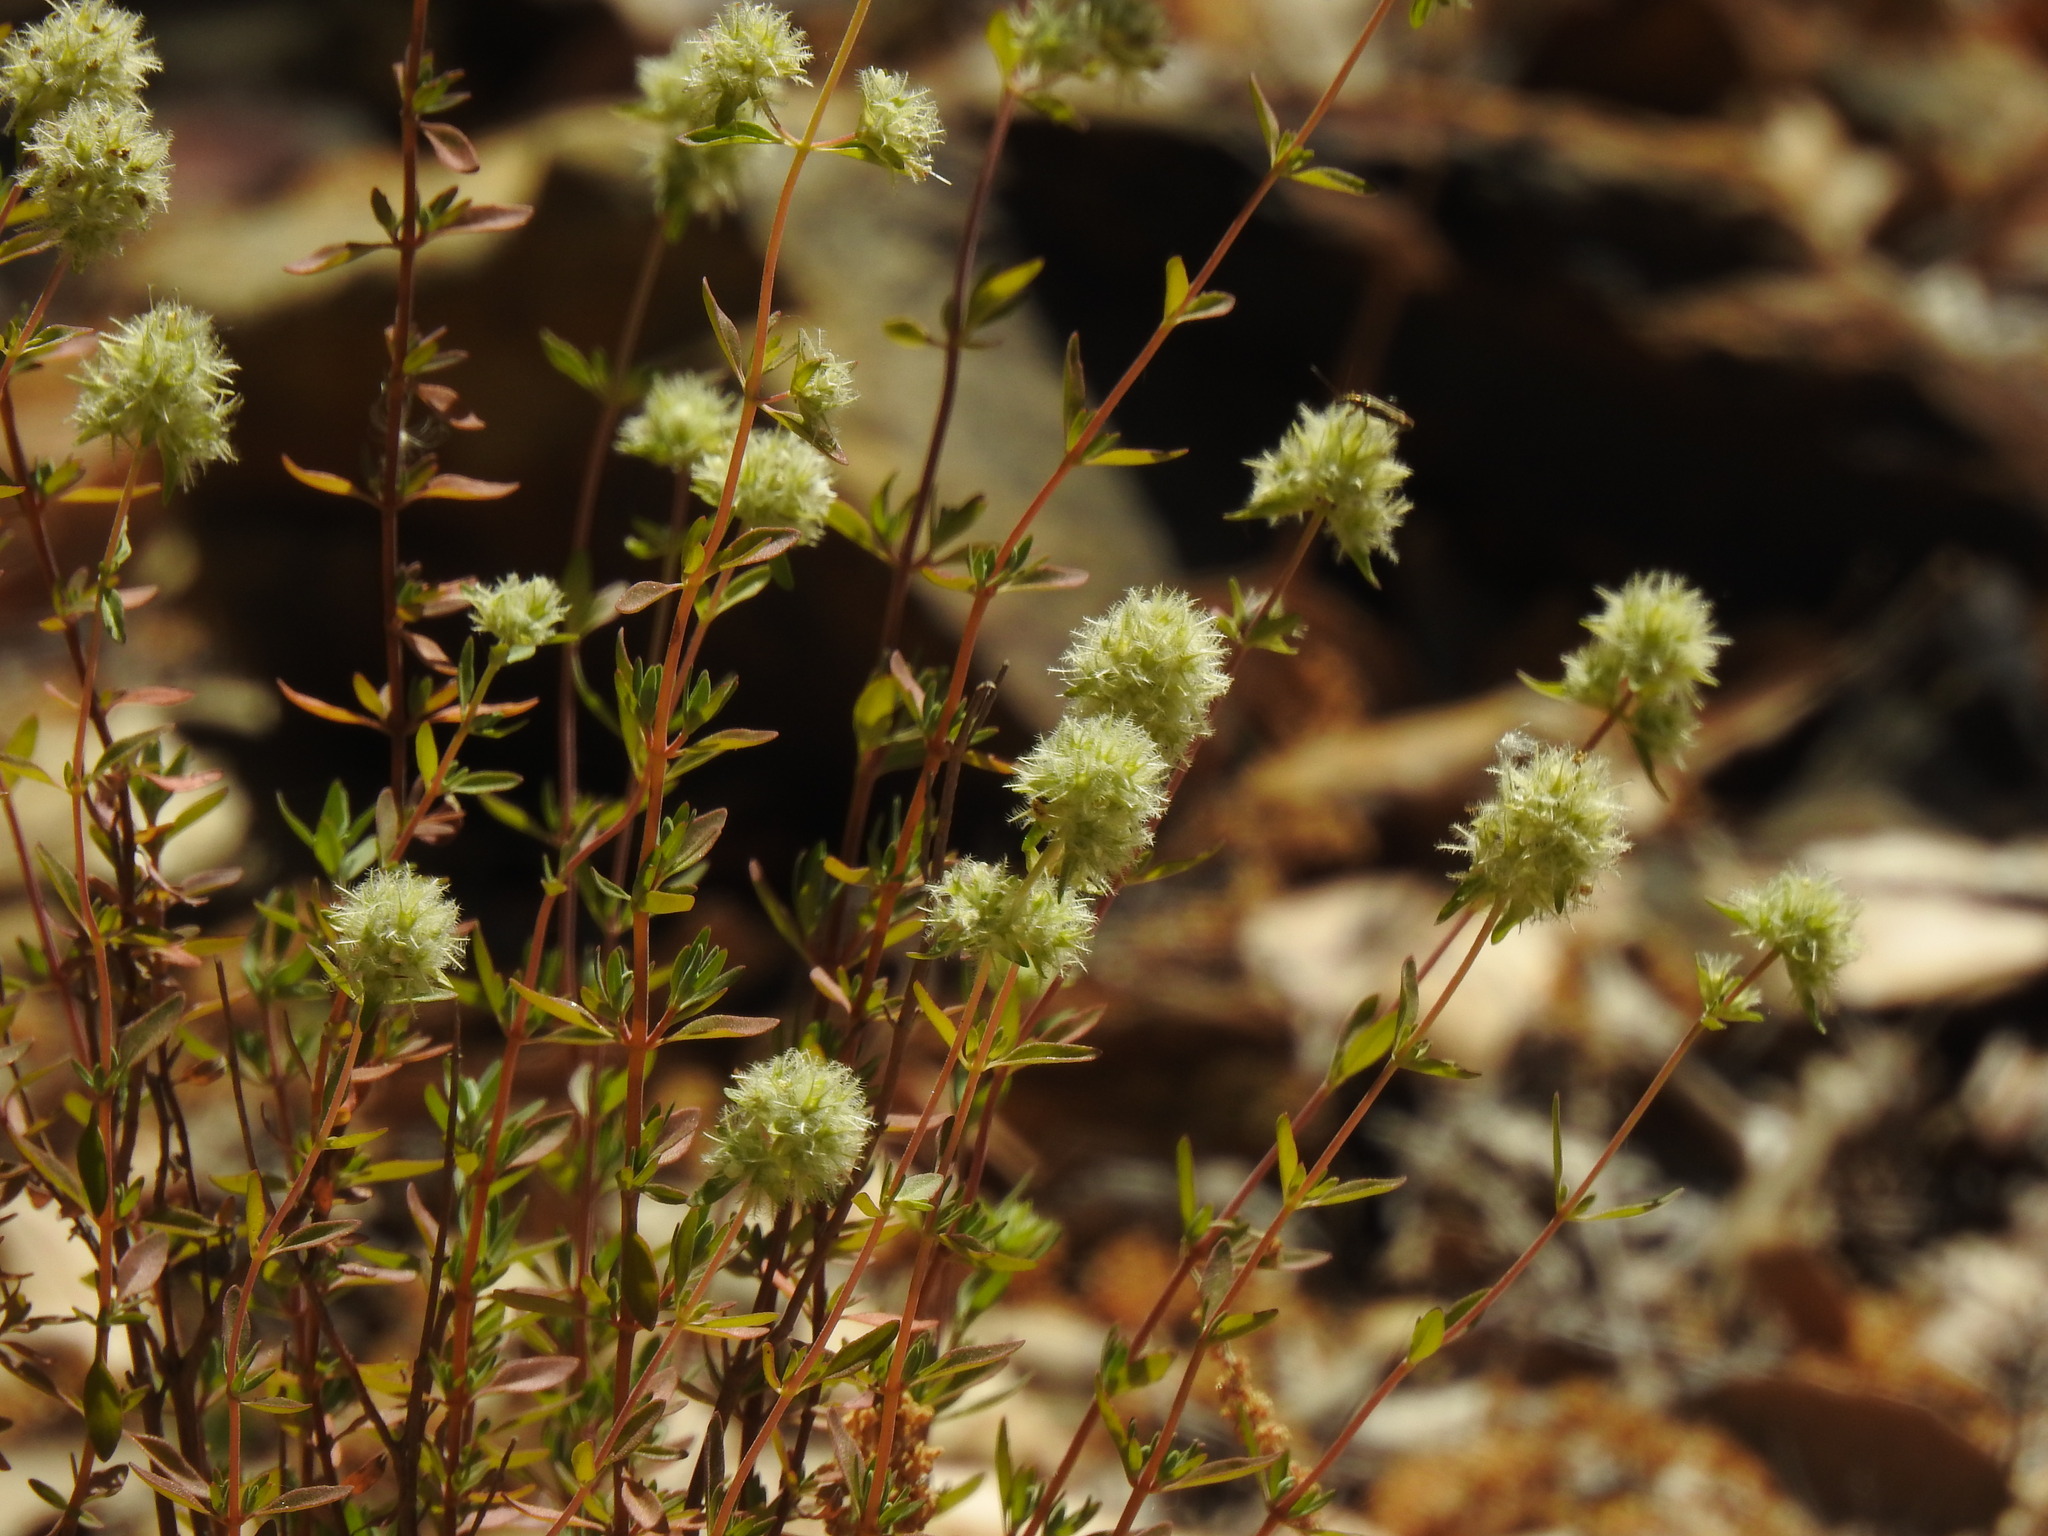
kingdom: Plantae
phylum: Tracheophyta
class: Magnoliopsida
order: Lamiales
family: Lamiaceae
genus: Thymus
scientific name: Thymus mastichina
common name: Mastic thyme
